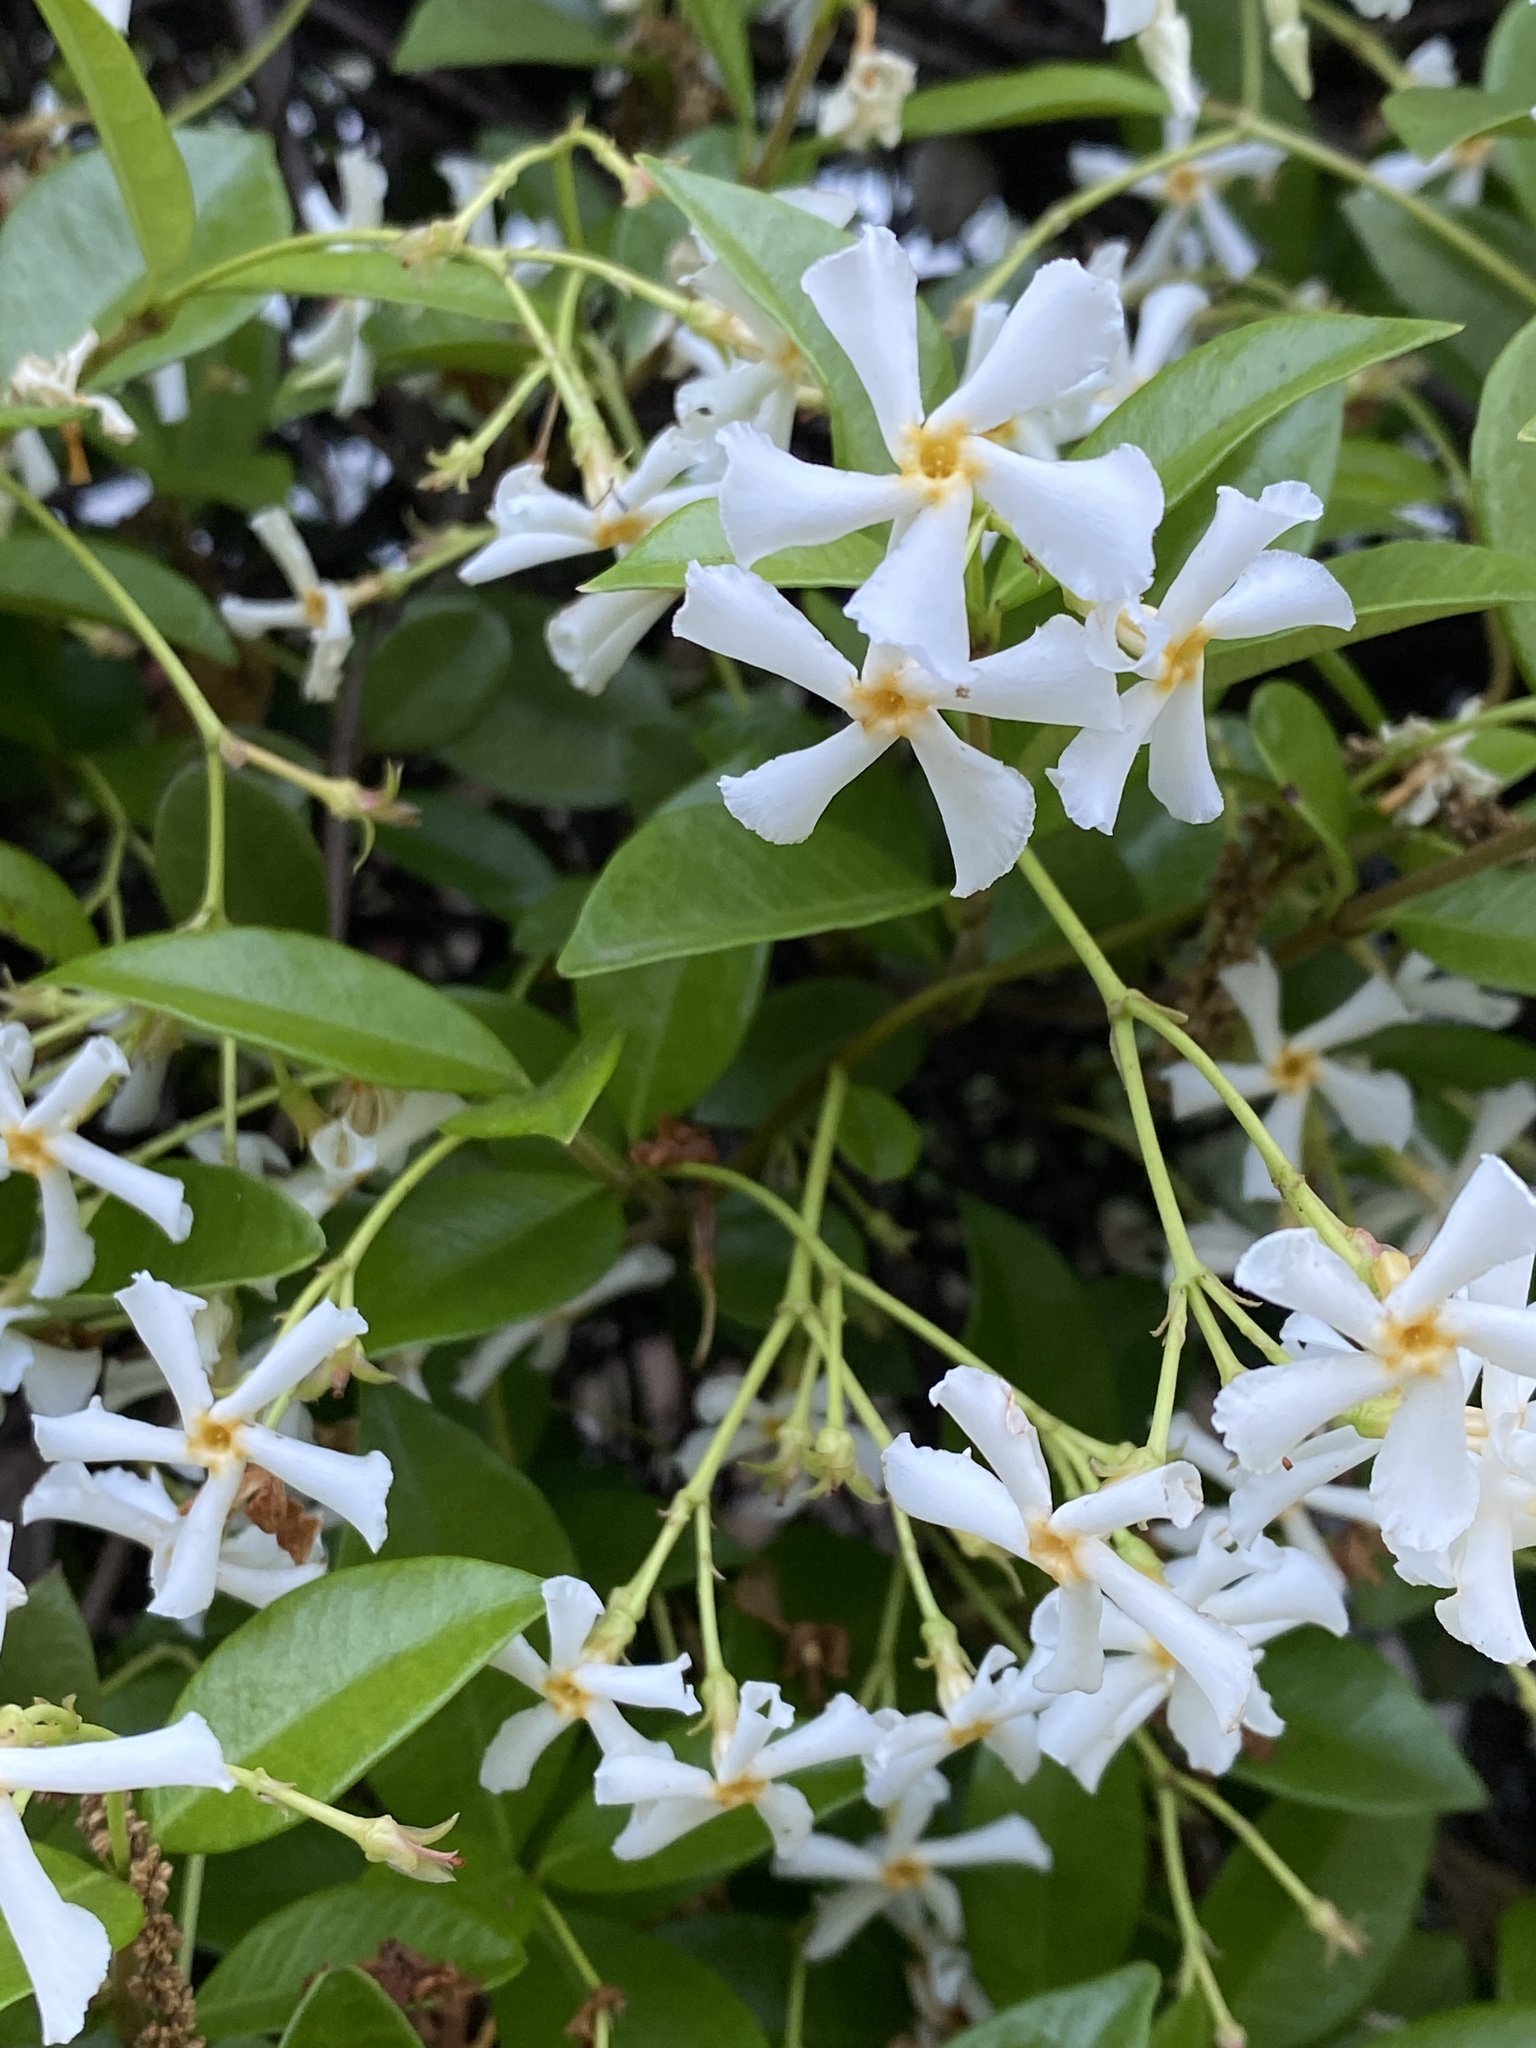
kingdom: Plantae
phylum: Tracheophyta
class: Magnoliopsida
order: Gentianales
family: Apocynaceae
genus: Trachelospermum
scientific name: Trachelospermum jasminoides
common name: Confederate jasmine
